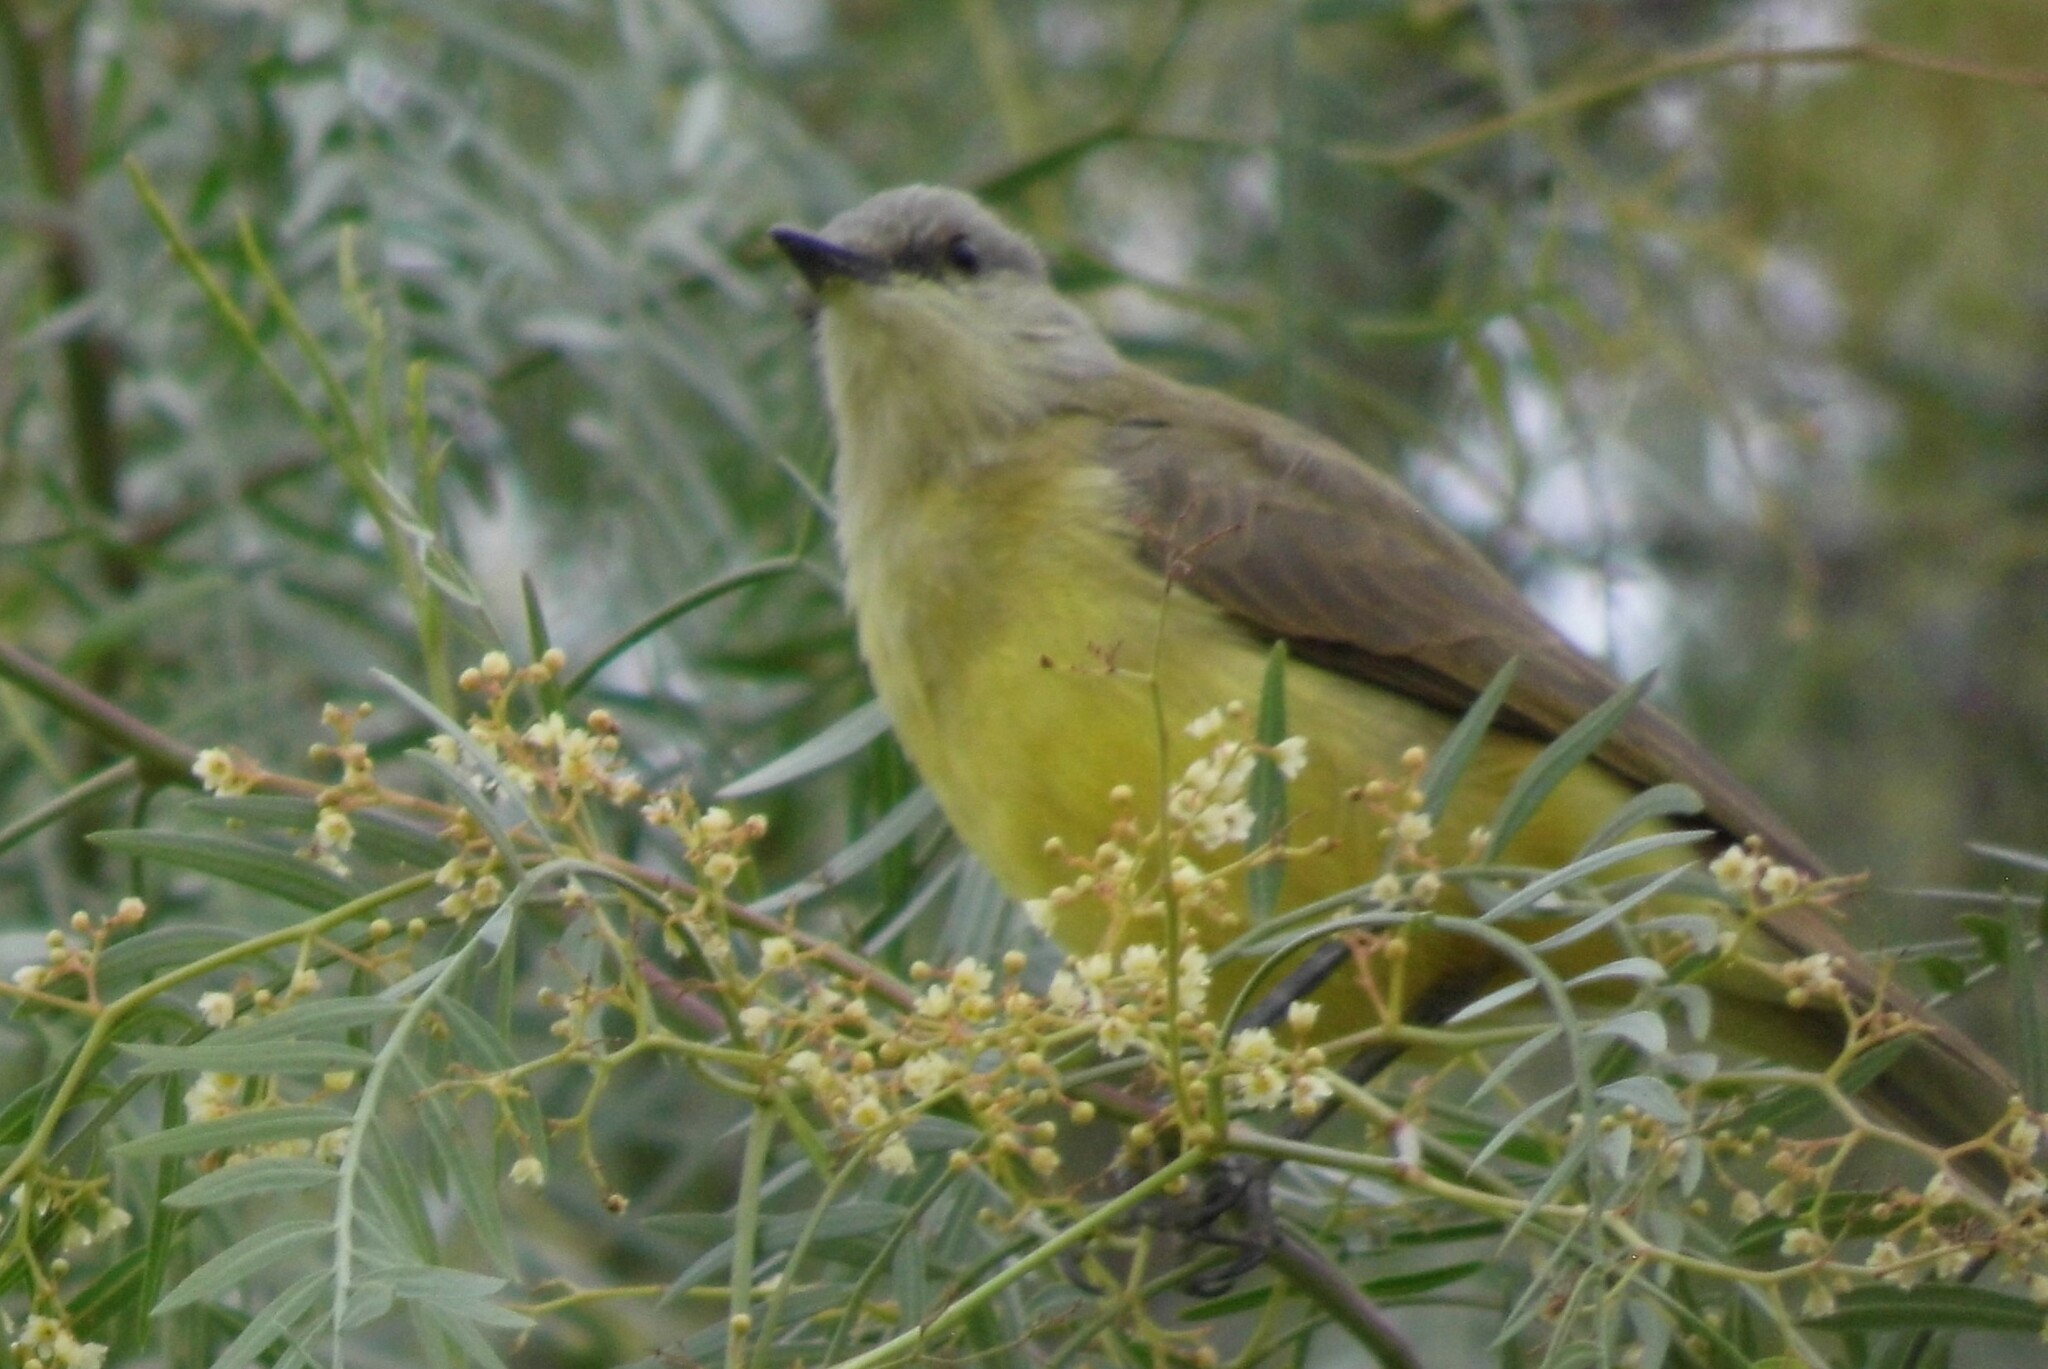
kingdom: Animalia
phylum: Chordata
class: Aves
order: Passeriformes
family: Tyrannidae
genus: Machetornis
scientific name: Machetornis rixosa
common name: Cattle tyrant
